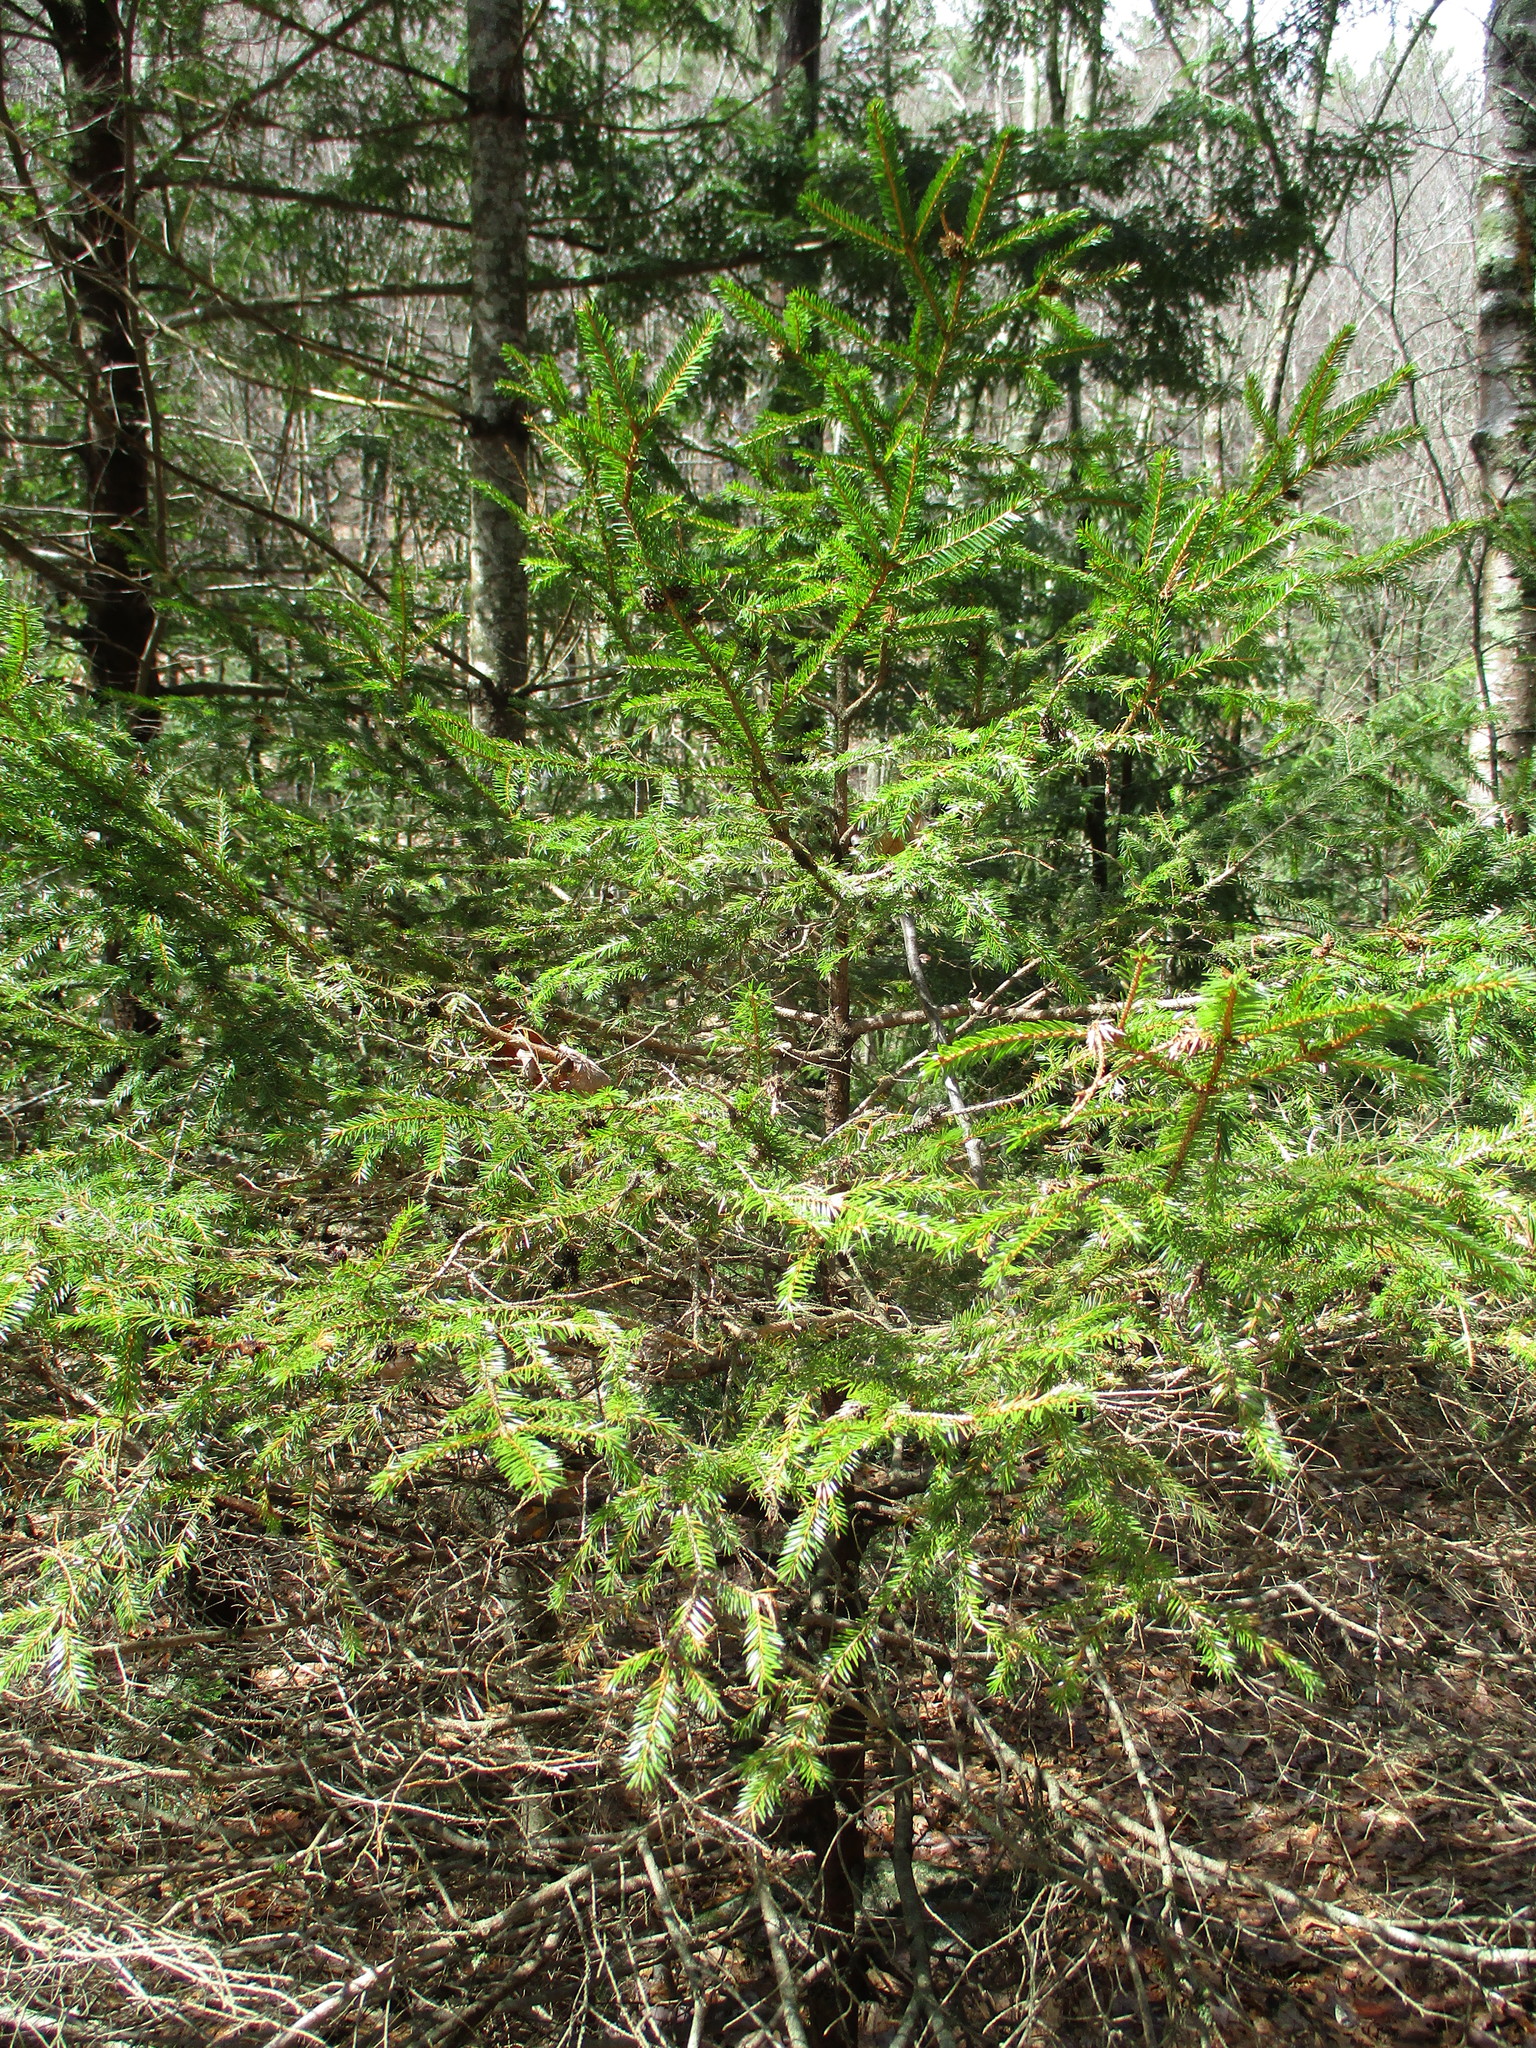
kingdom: Plantae
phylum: Tracheophyta
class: Pinopsida
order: Pinales
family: Pinaceae
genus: Picea
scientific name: Picea rubens
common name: Red spruce
